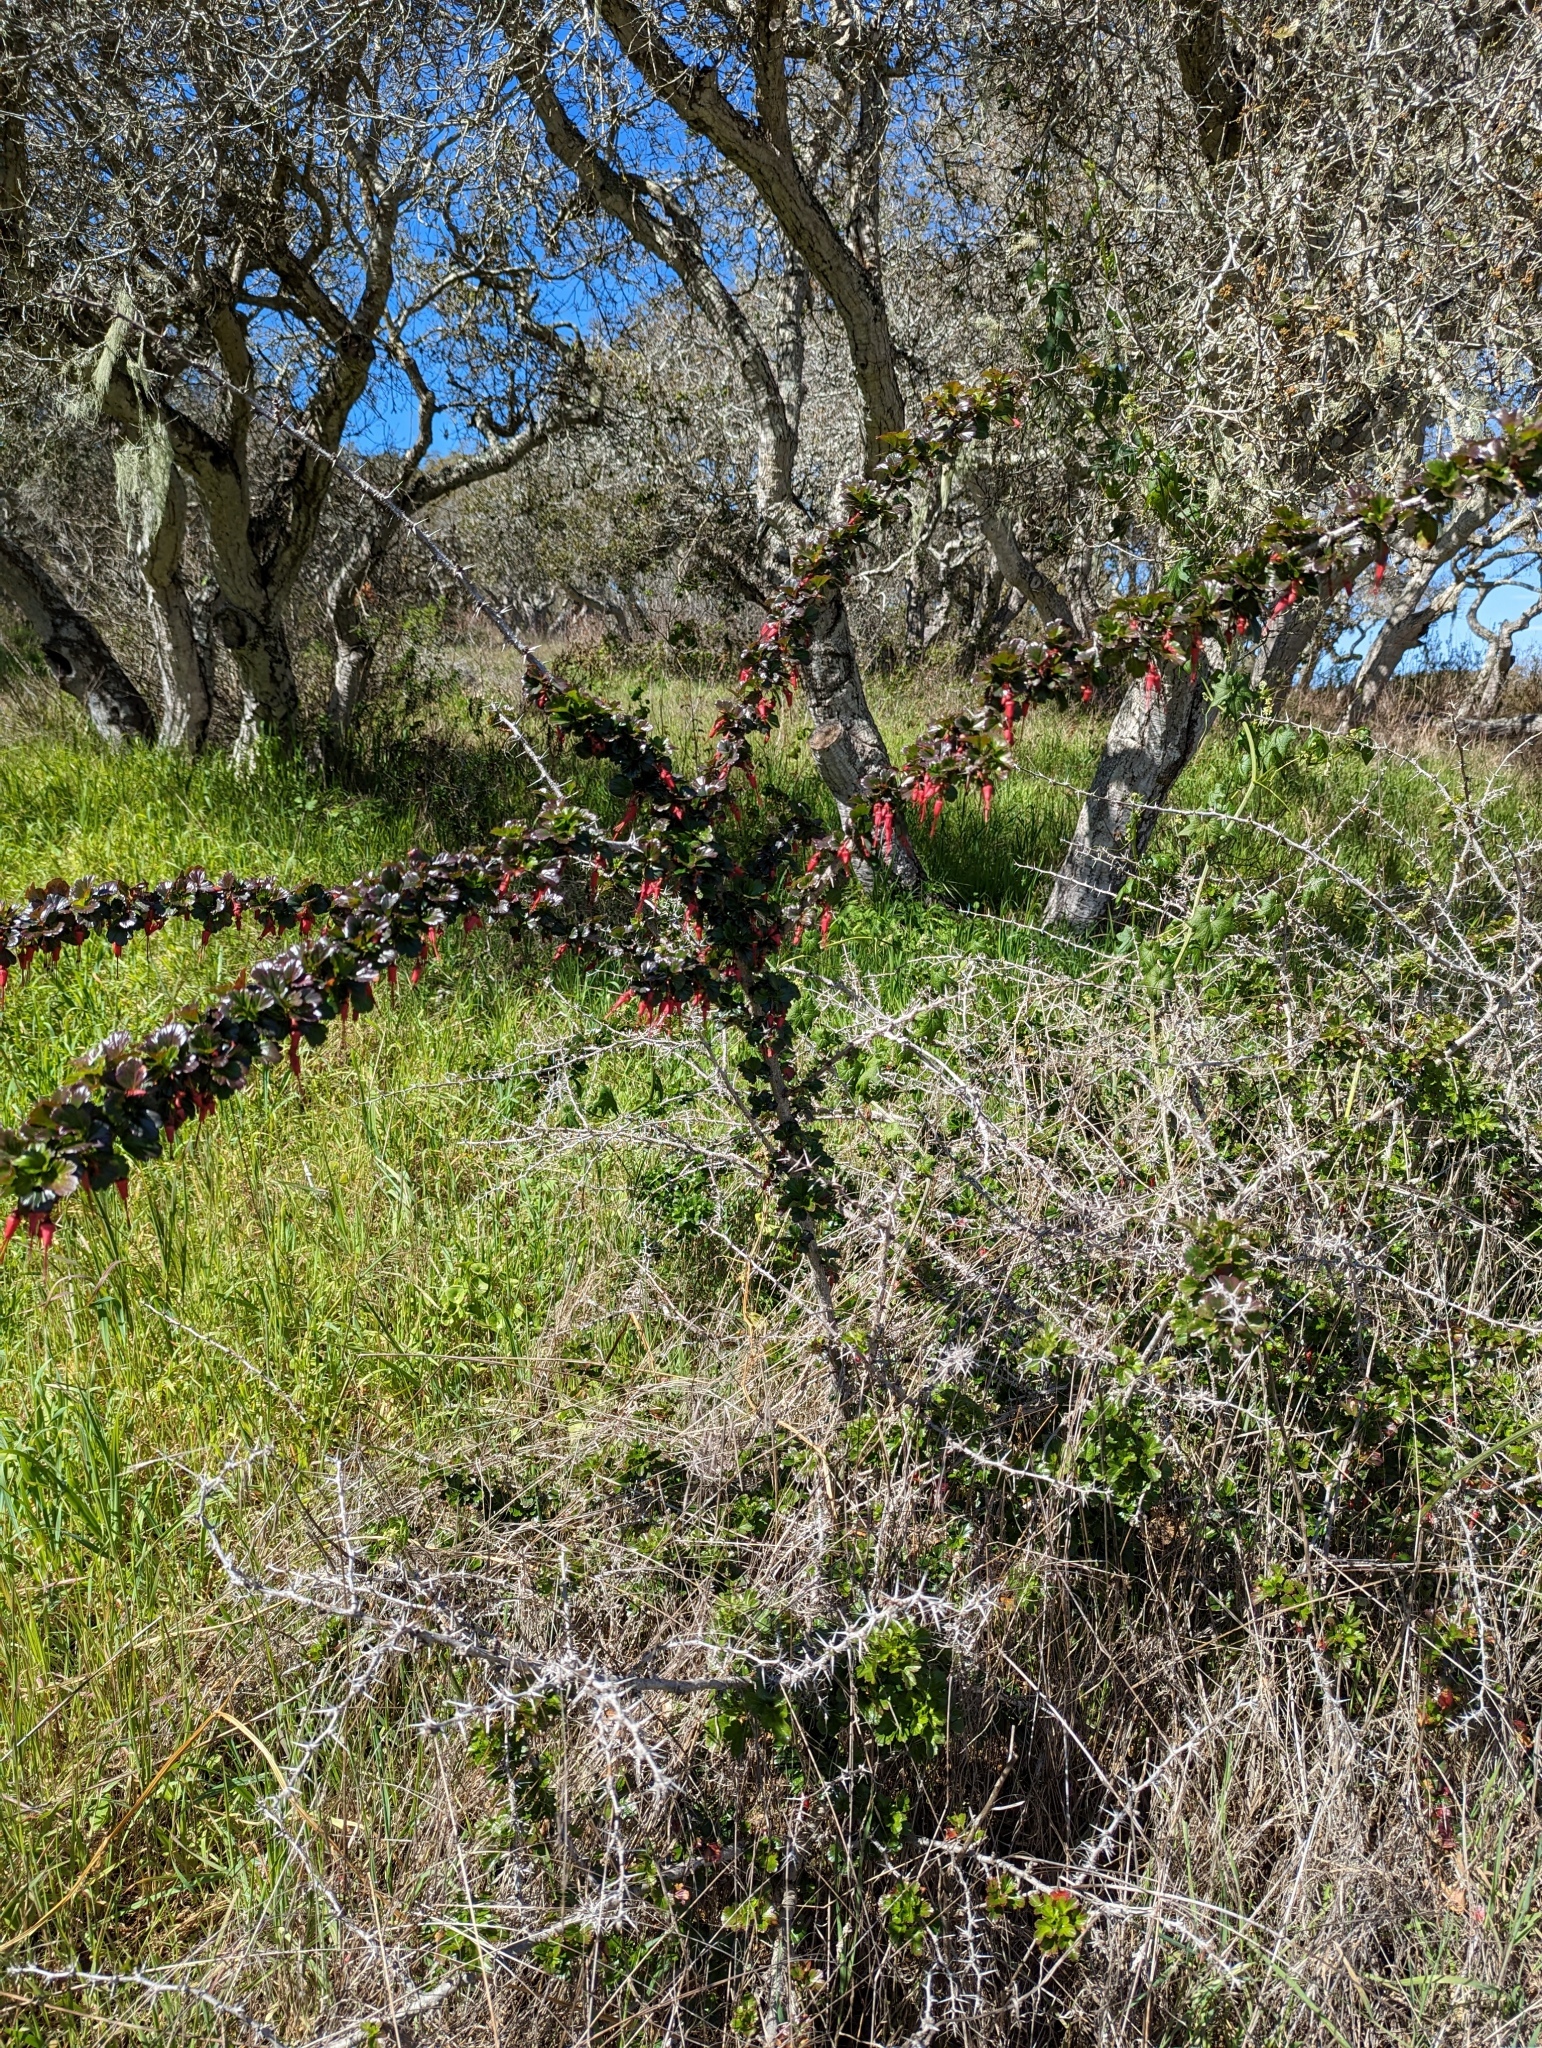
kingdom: Plantae
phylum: Tracheophyta
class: Magnoliopsida
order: Saxifragales
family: Grossulariaceae
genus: Ribes
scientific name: Ribes speciosum
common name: Fuchsia-flower gooseberry
